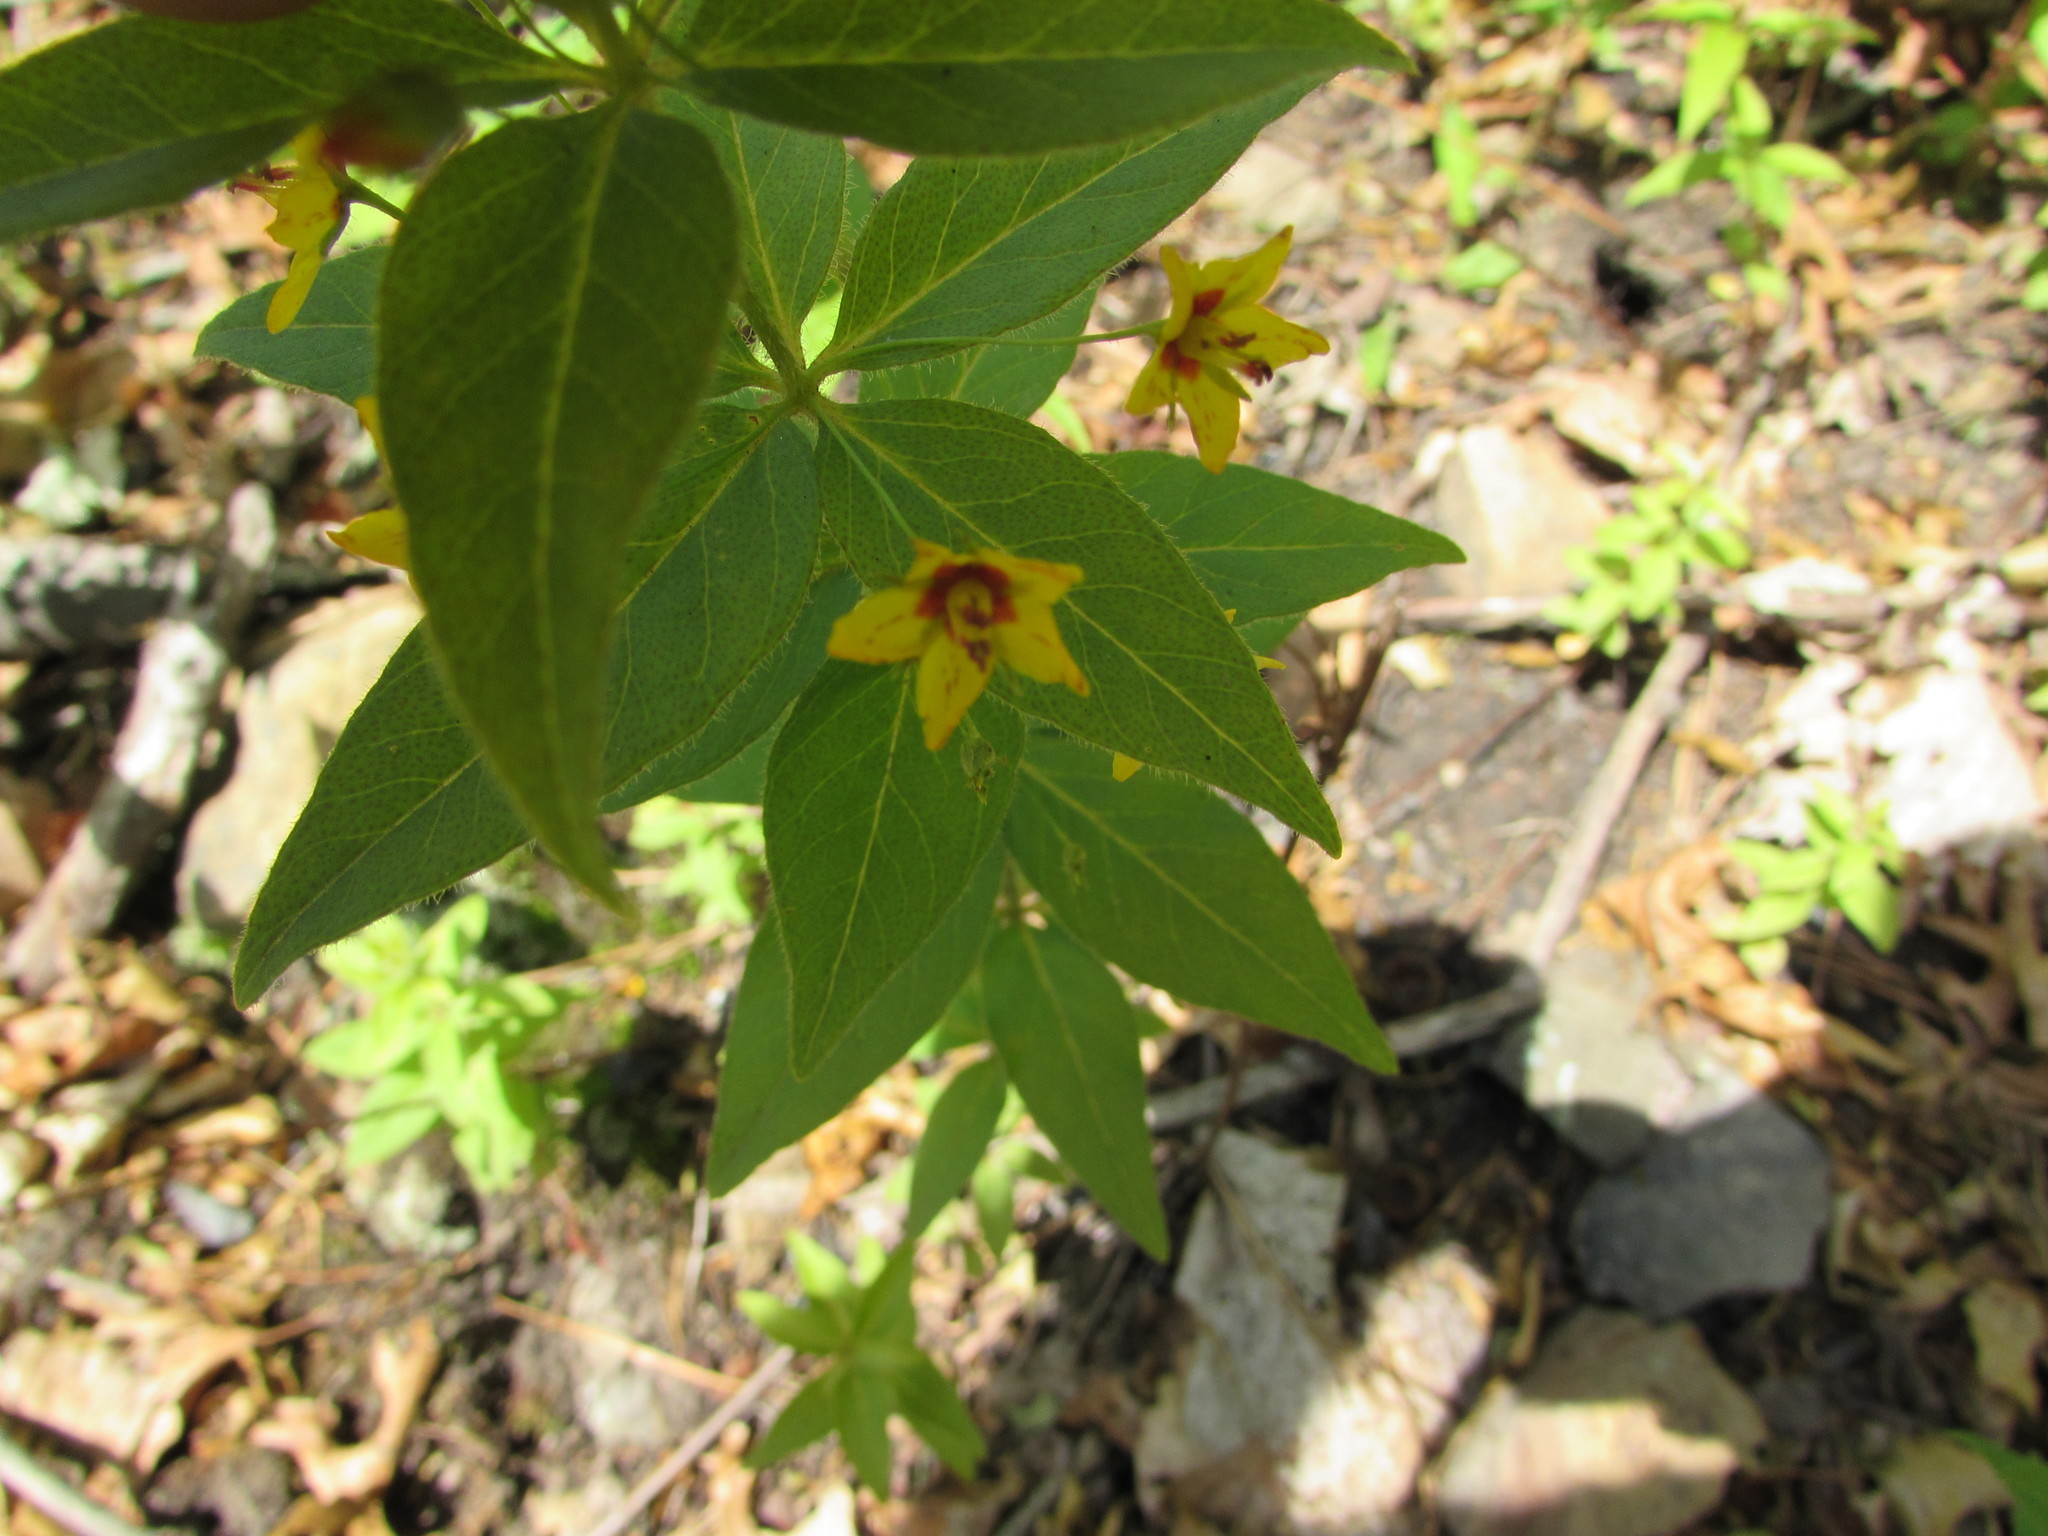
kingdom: Plantae
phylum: Tracheophyta
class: Magnoliopsida
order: Ericales
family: Primulaceae
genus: Lysimachia
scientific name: Lysimachia quadrifolia
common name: Whorled loosestrife
